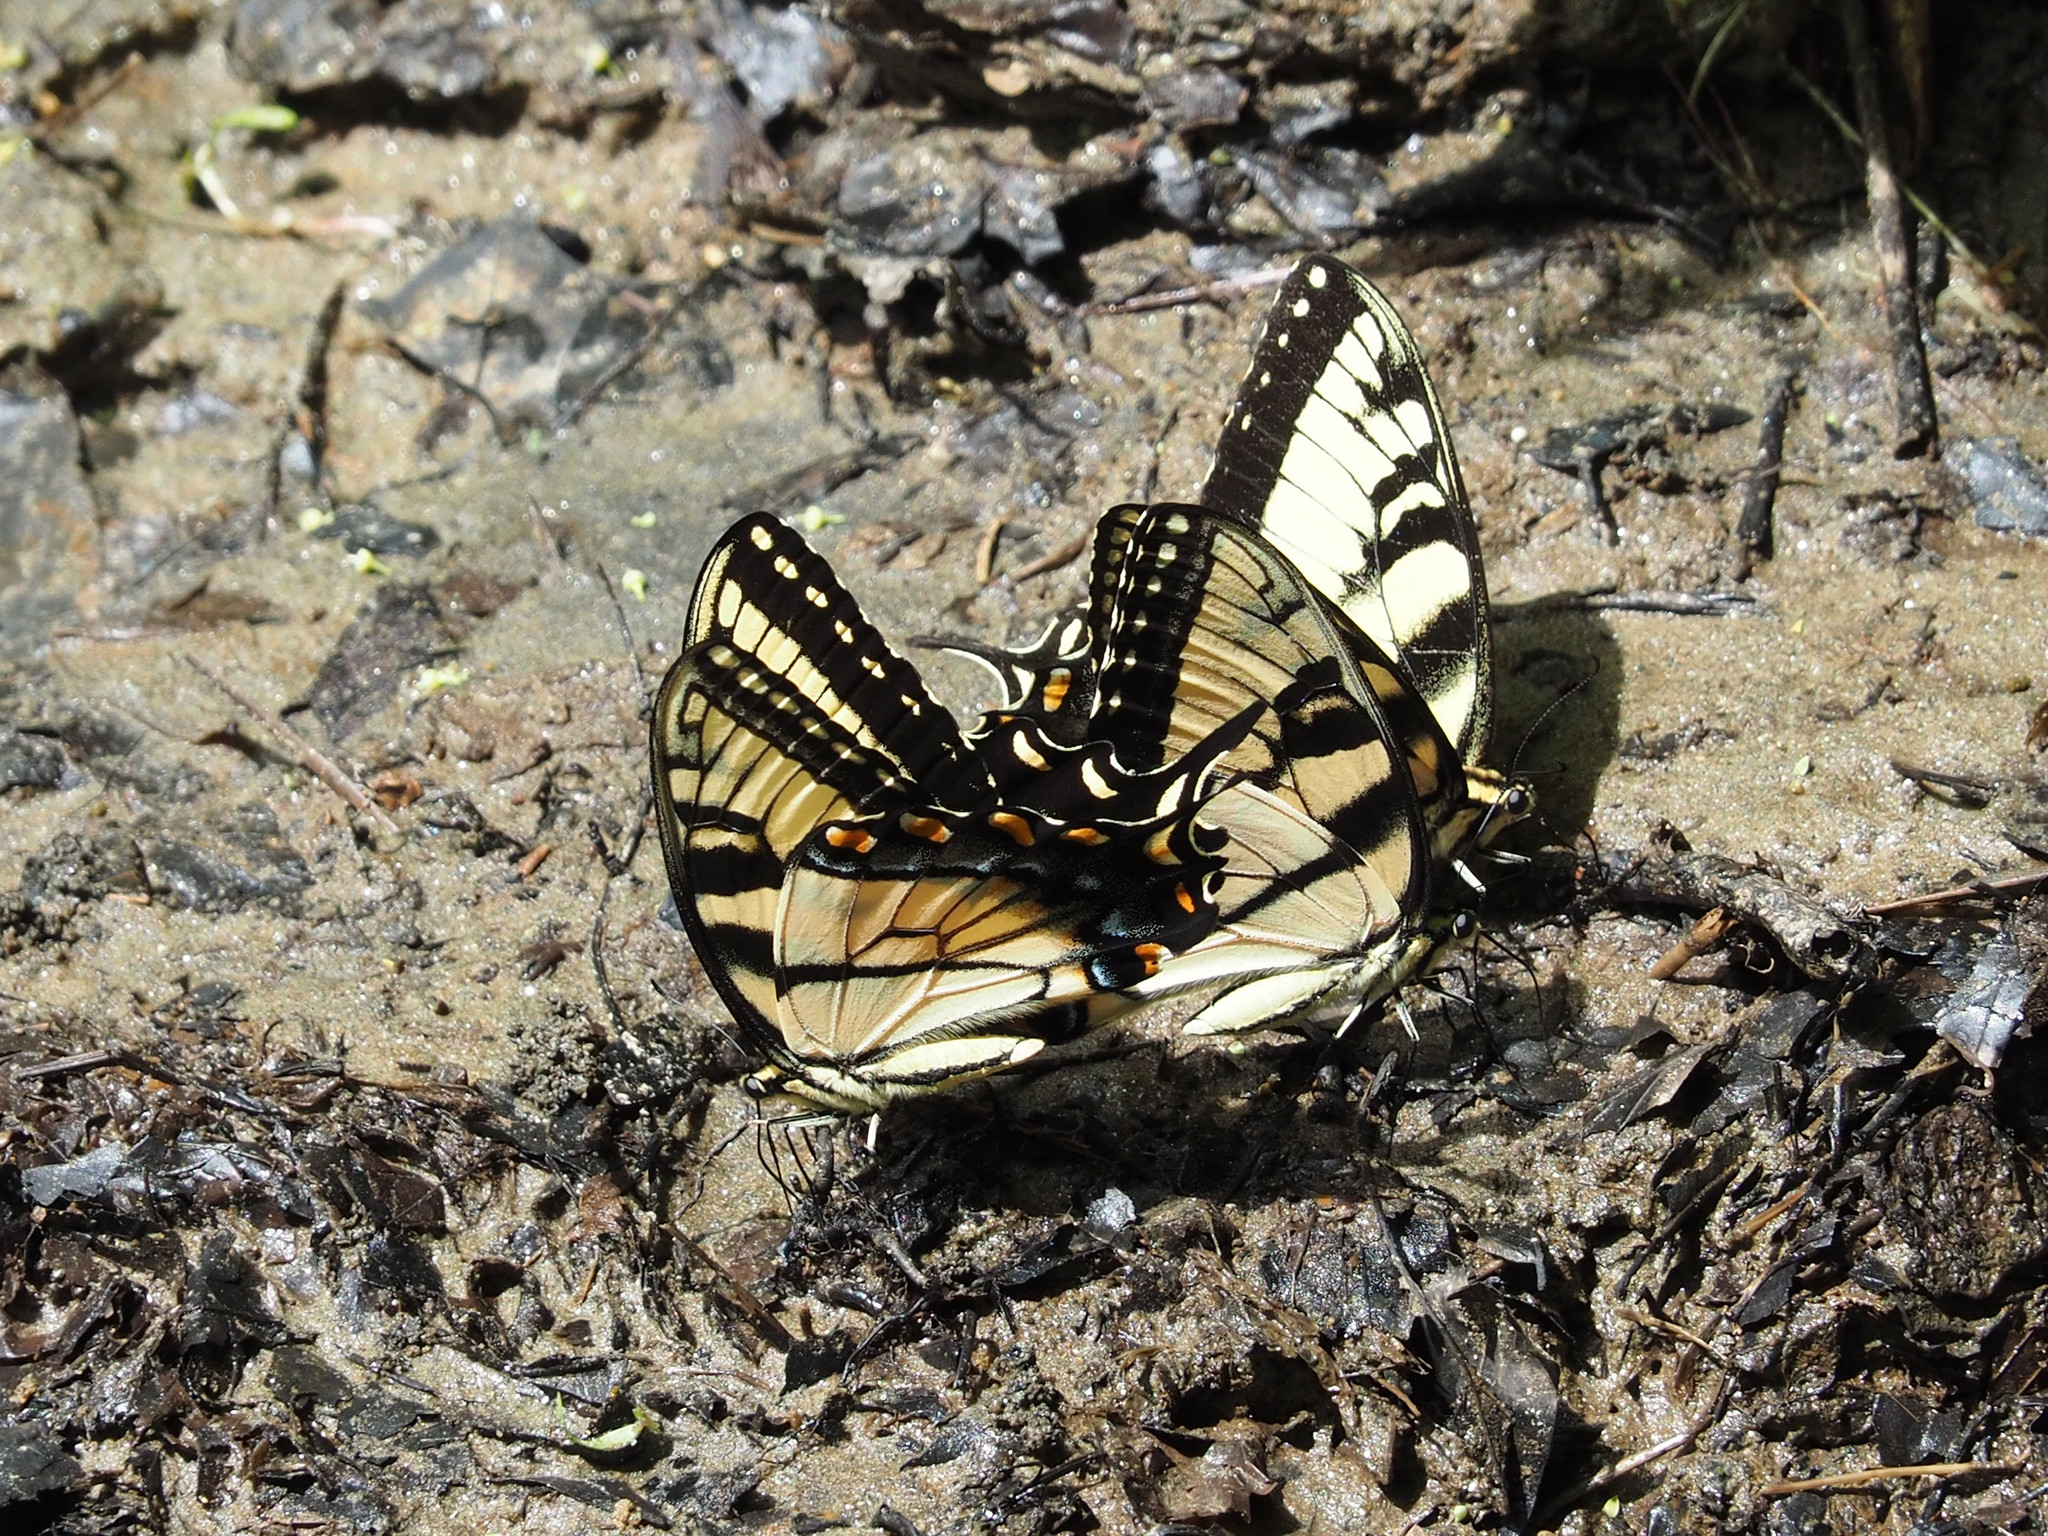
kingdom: Animalia
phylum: Arthropoda
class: Insecta
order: Lepidoptera
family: Papilionidae
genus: Papilio
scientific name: Papilio glaucus
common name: Tiger swallowtail
